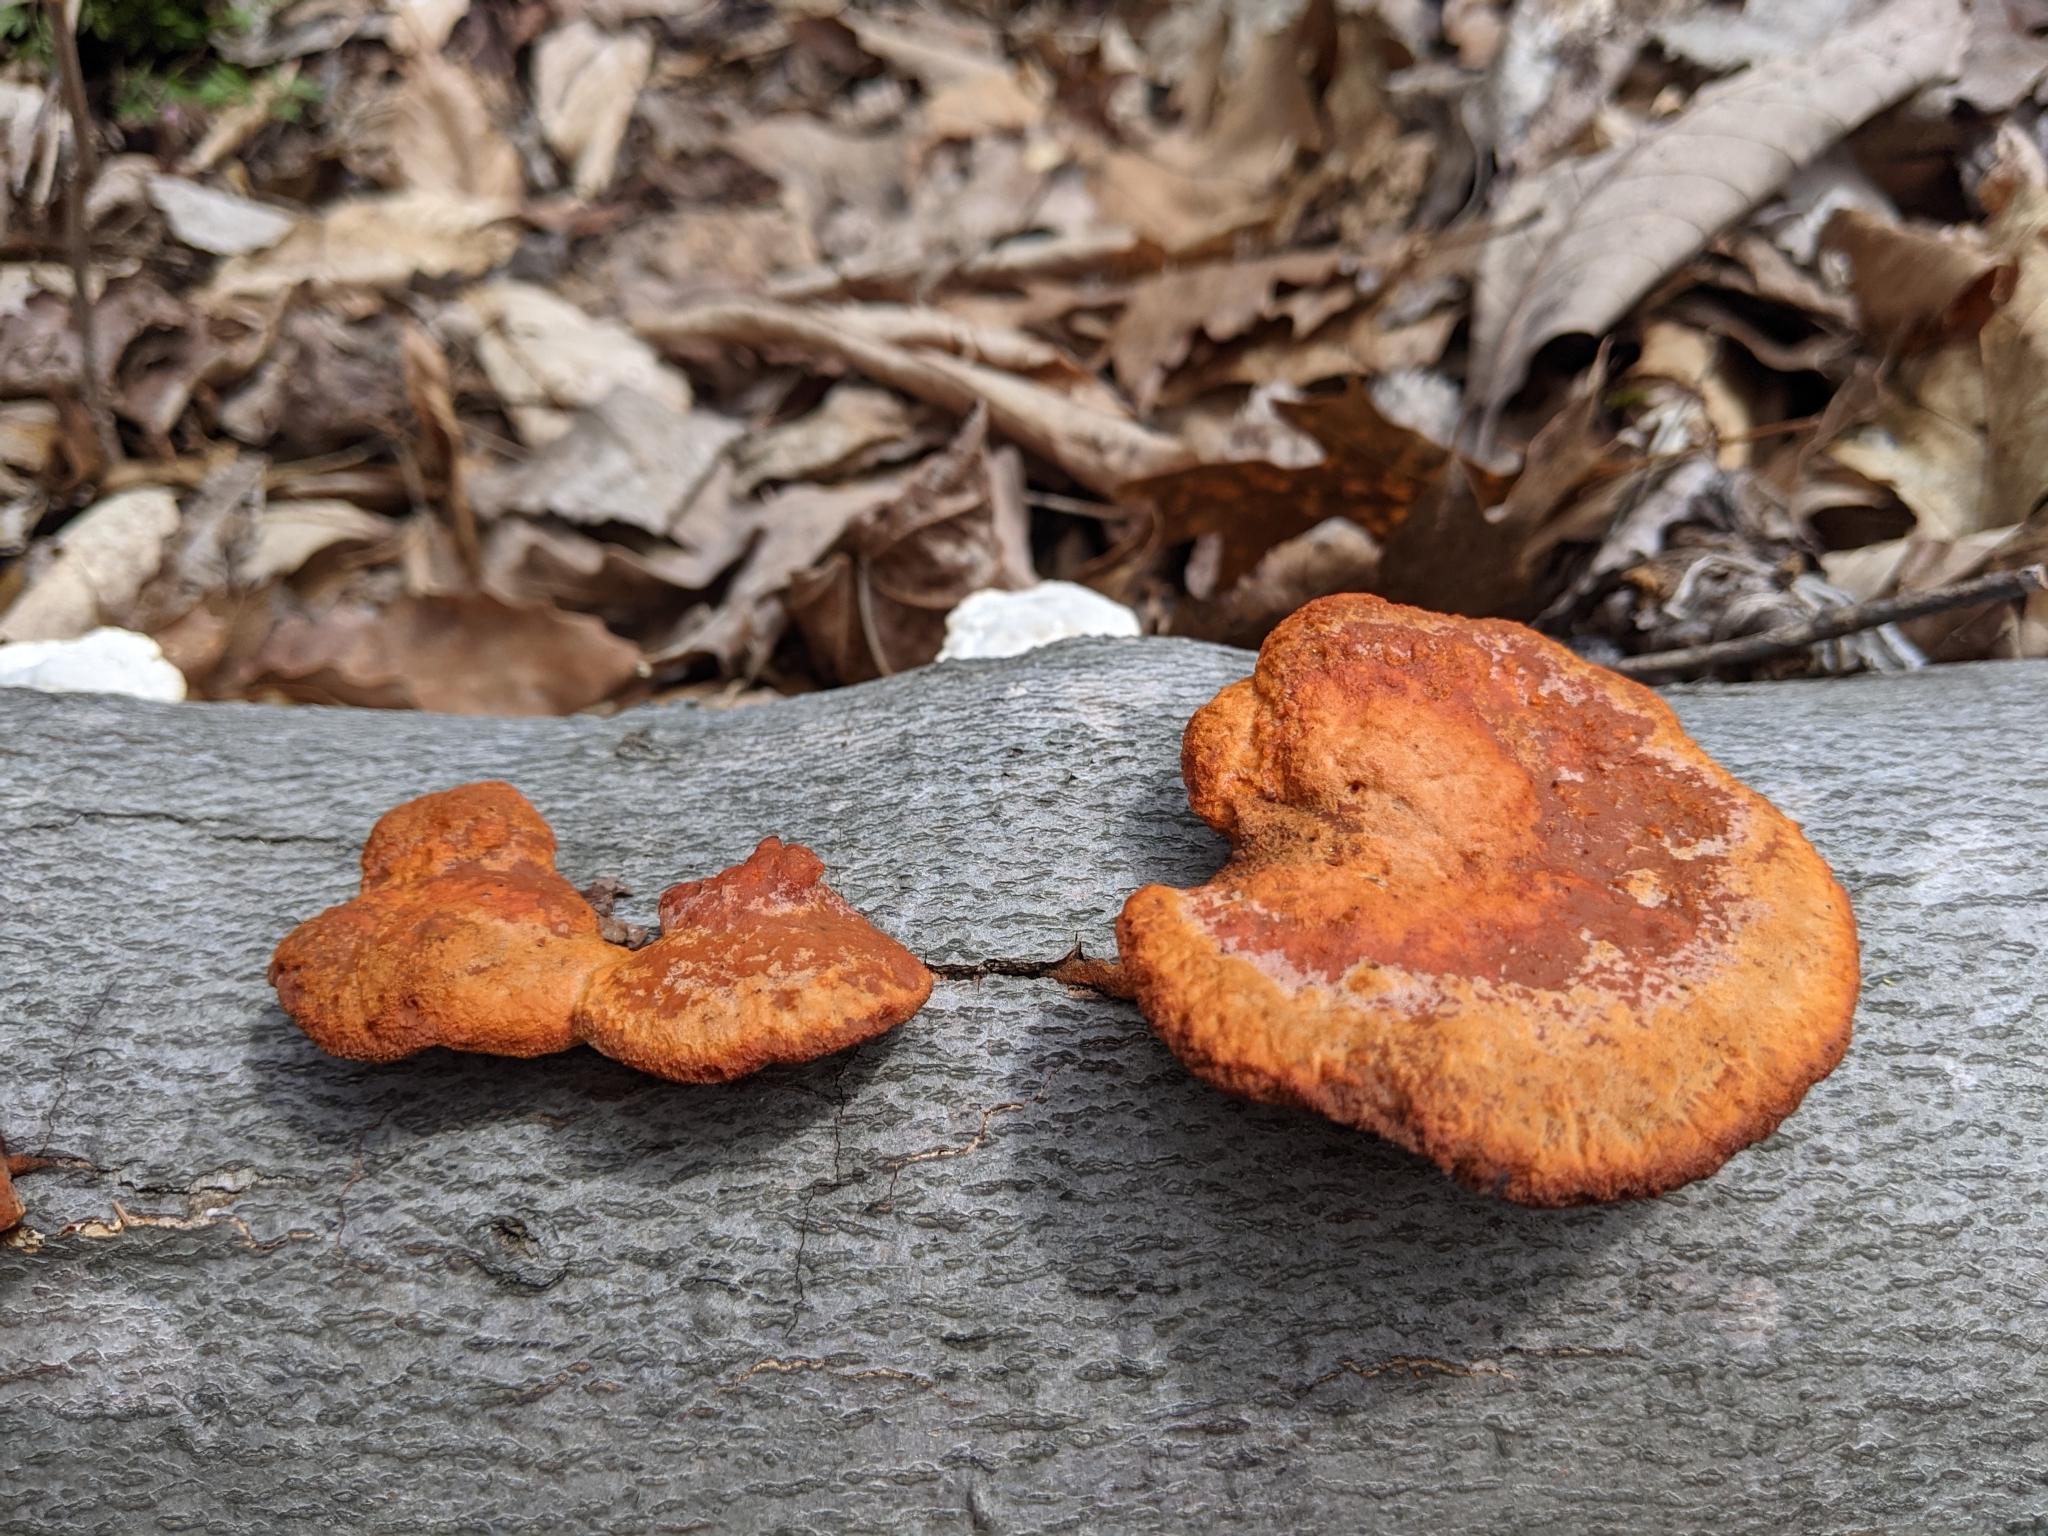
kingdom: Fungi
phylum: Basidiomycota
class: Agaricomycetes
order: Polyporales
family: Polyporaceae
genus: Trametes
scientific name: Trametes cinnabarina
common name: Northern cinnabar polypore
